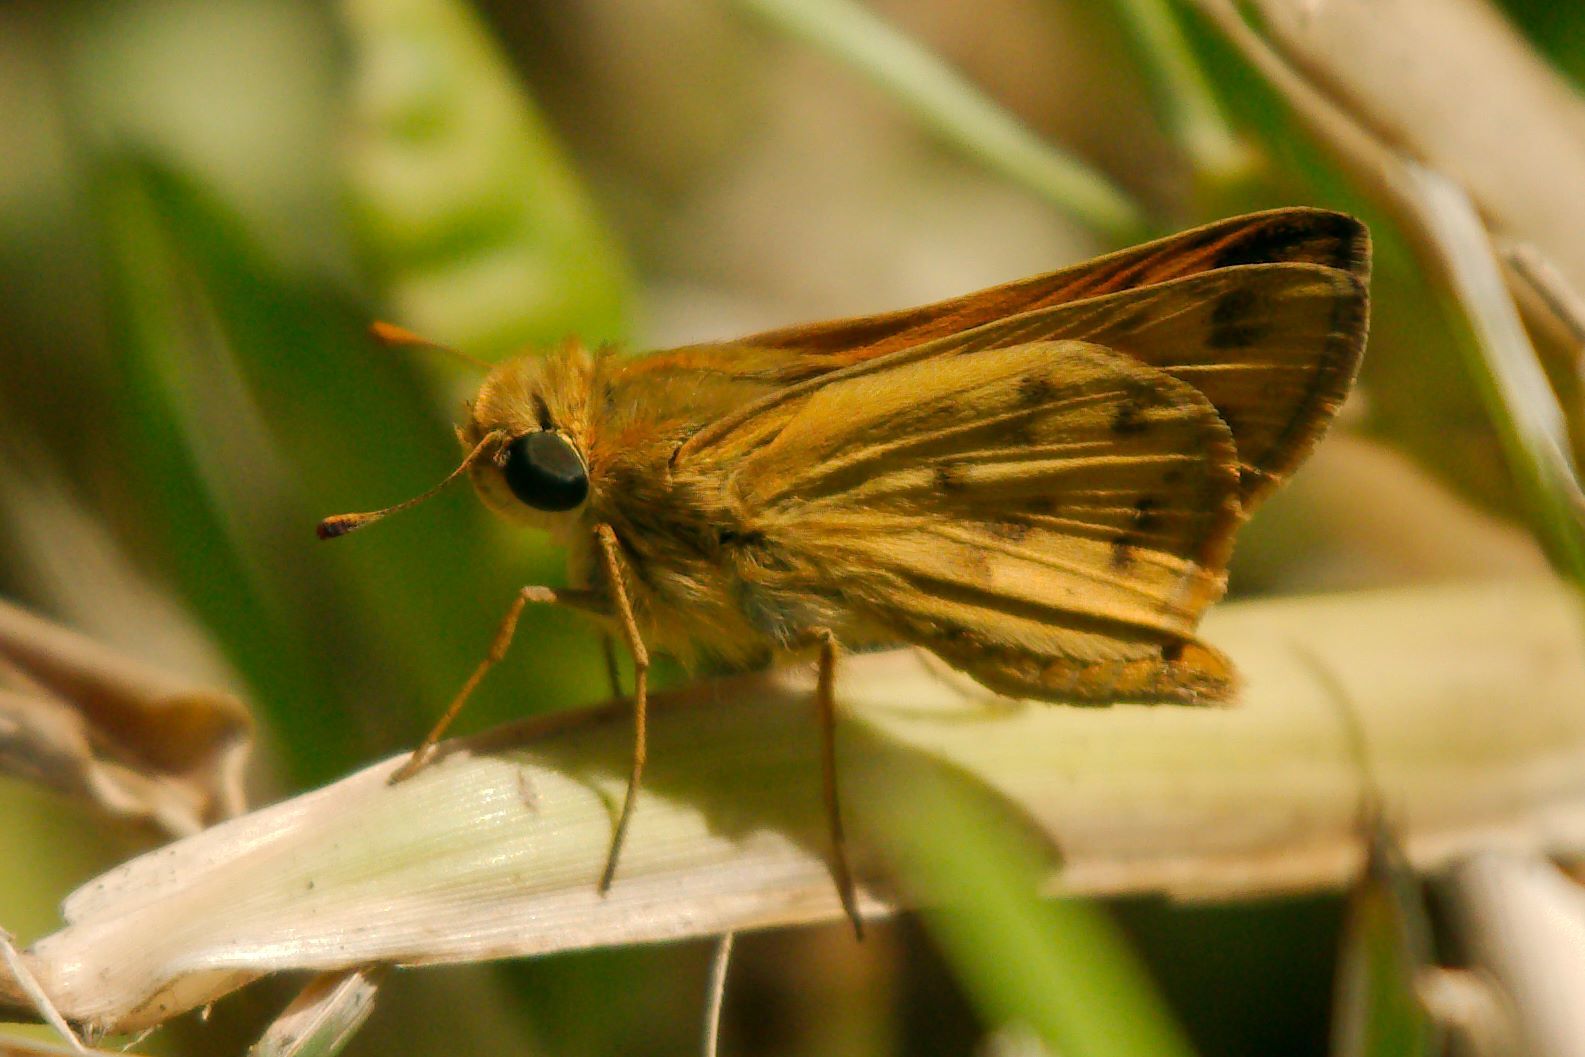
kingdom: Animalia
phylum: Arthropoda
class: Insecta
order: Lepidoptera
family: Hesperiidae
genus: Hylephila
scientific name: Hylephila phyleus
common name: Fiery skipper
